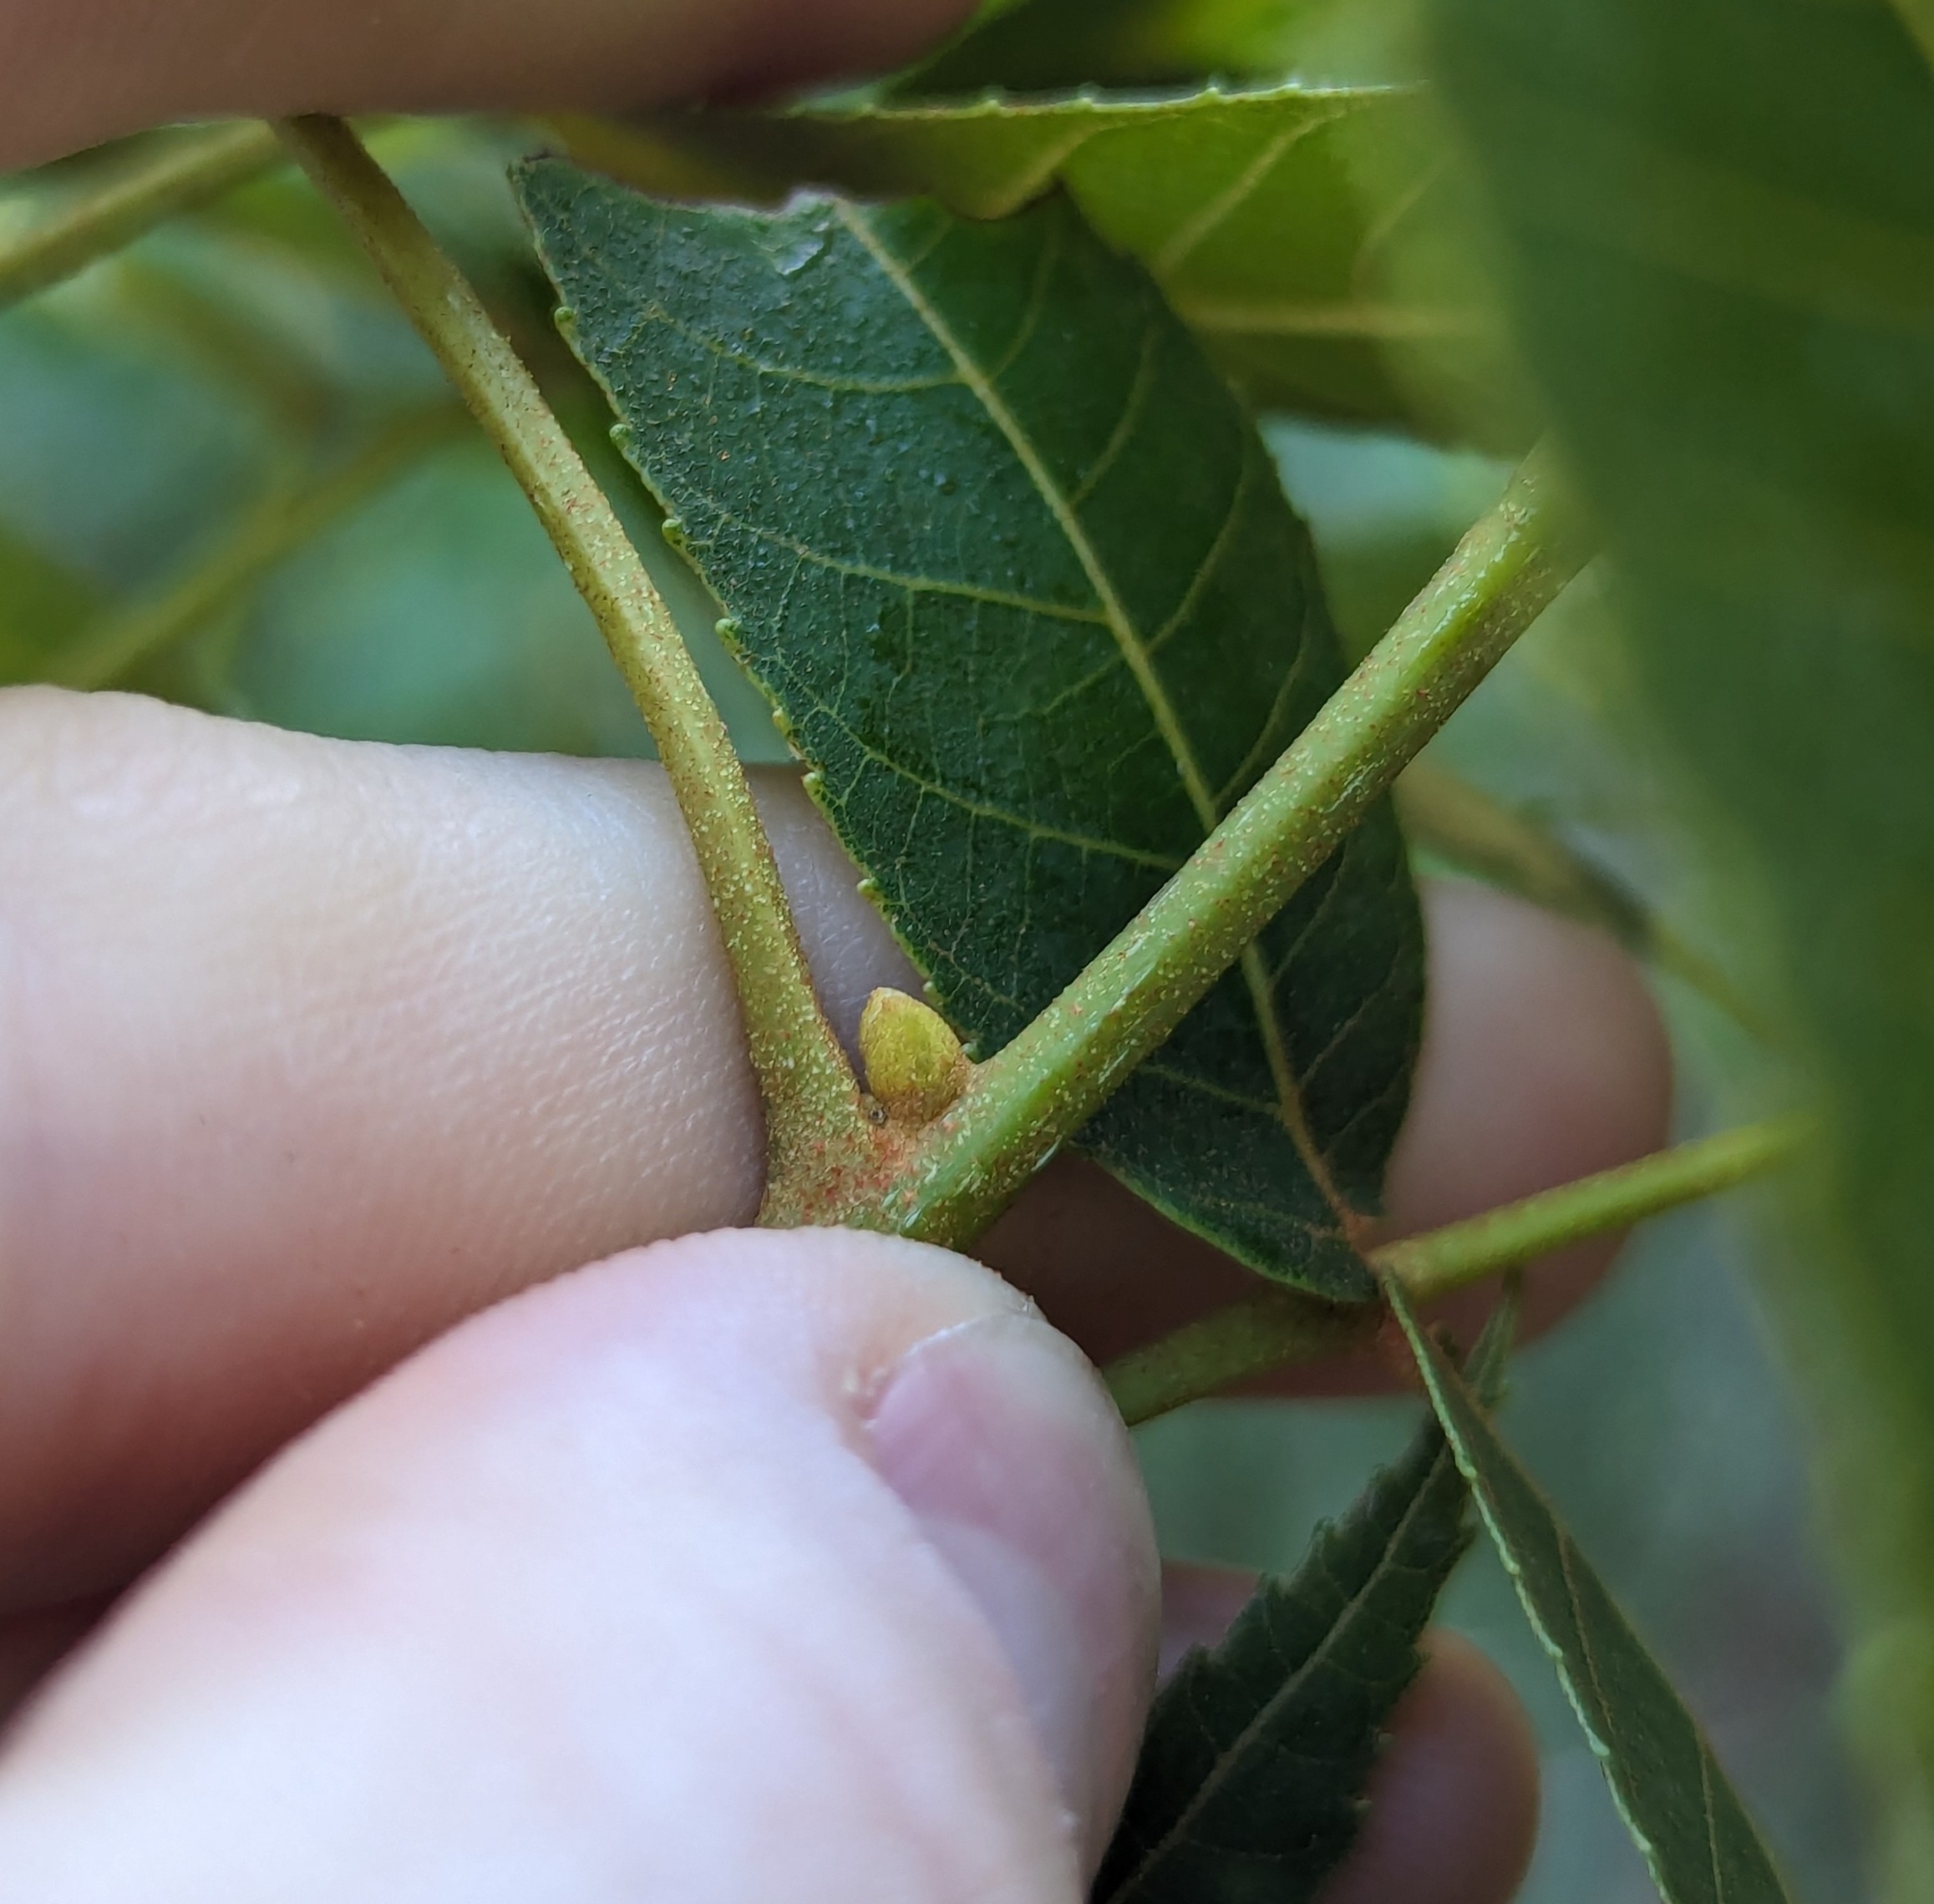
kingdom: Plantae
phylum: Tracheophyta
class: Magnoliopsida
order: Fagales
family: Juglandaceae
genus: Carya
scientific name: Carya floridana
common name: Scrub hickory
